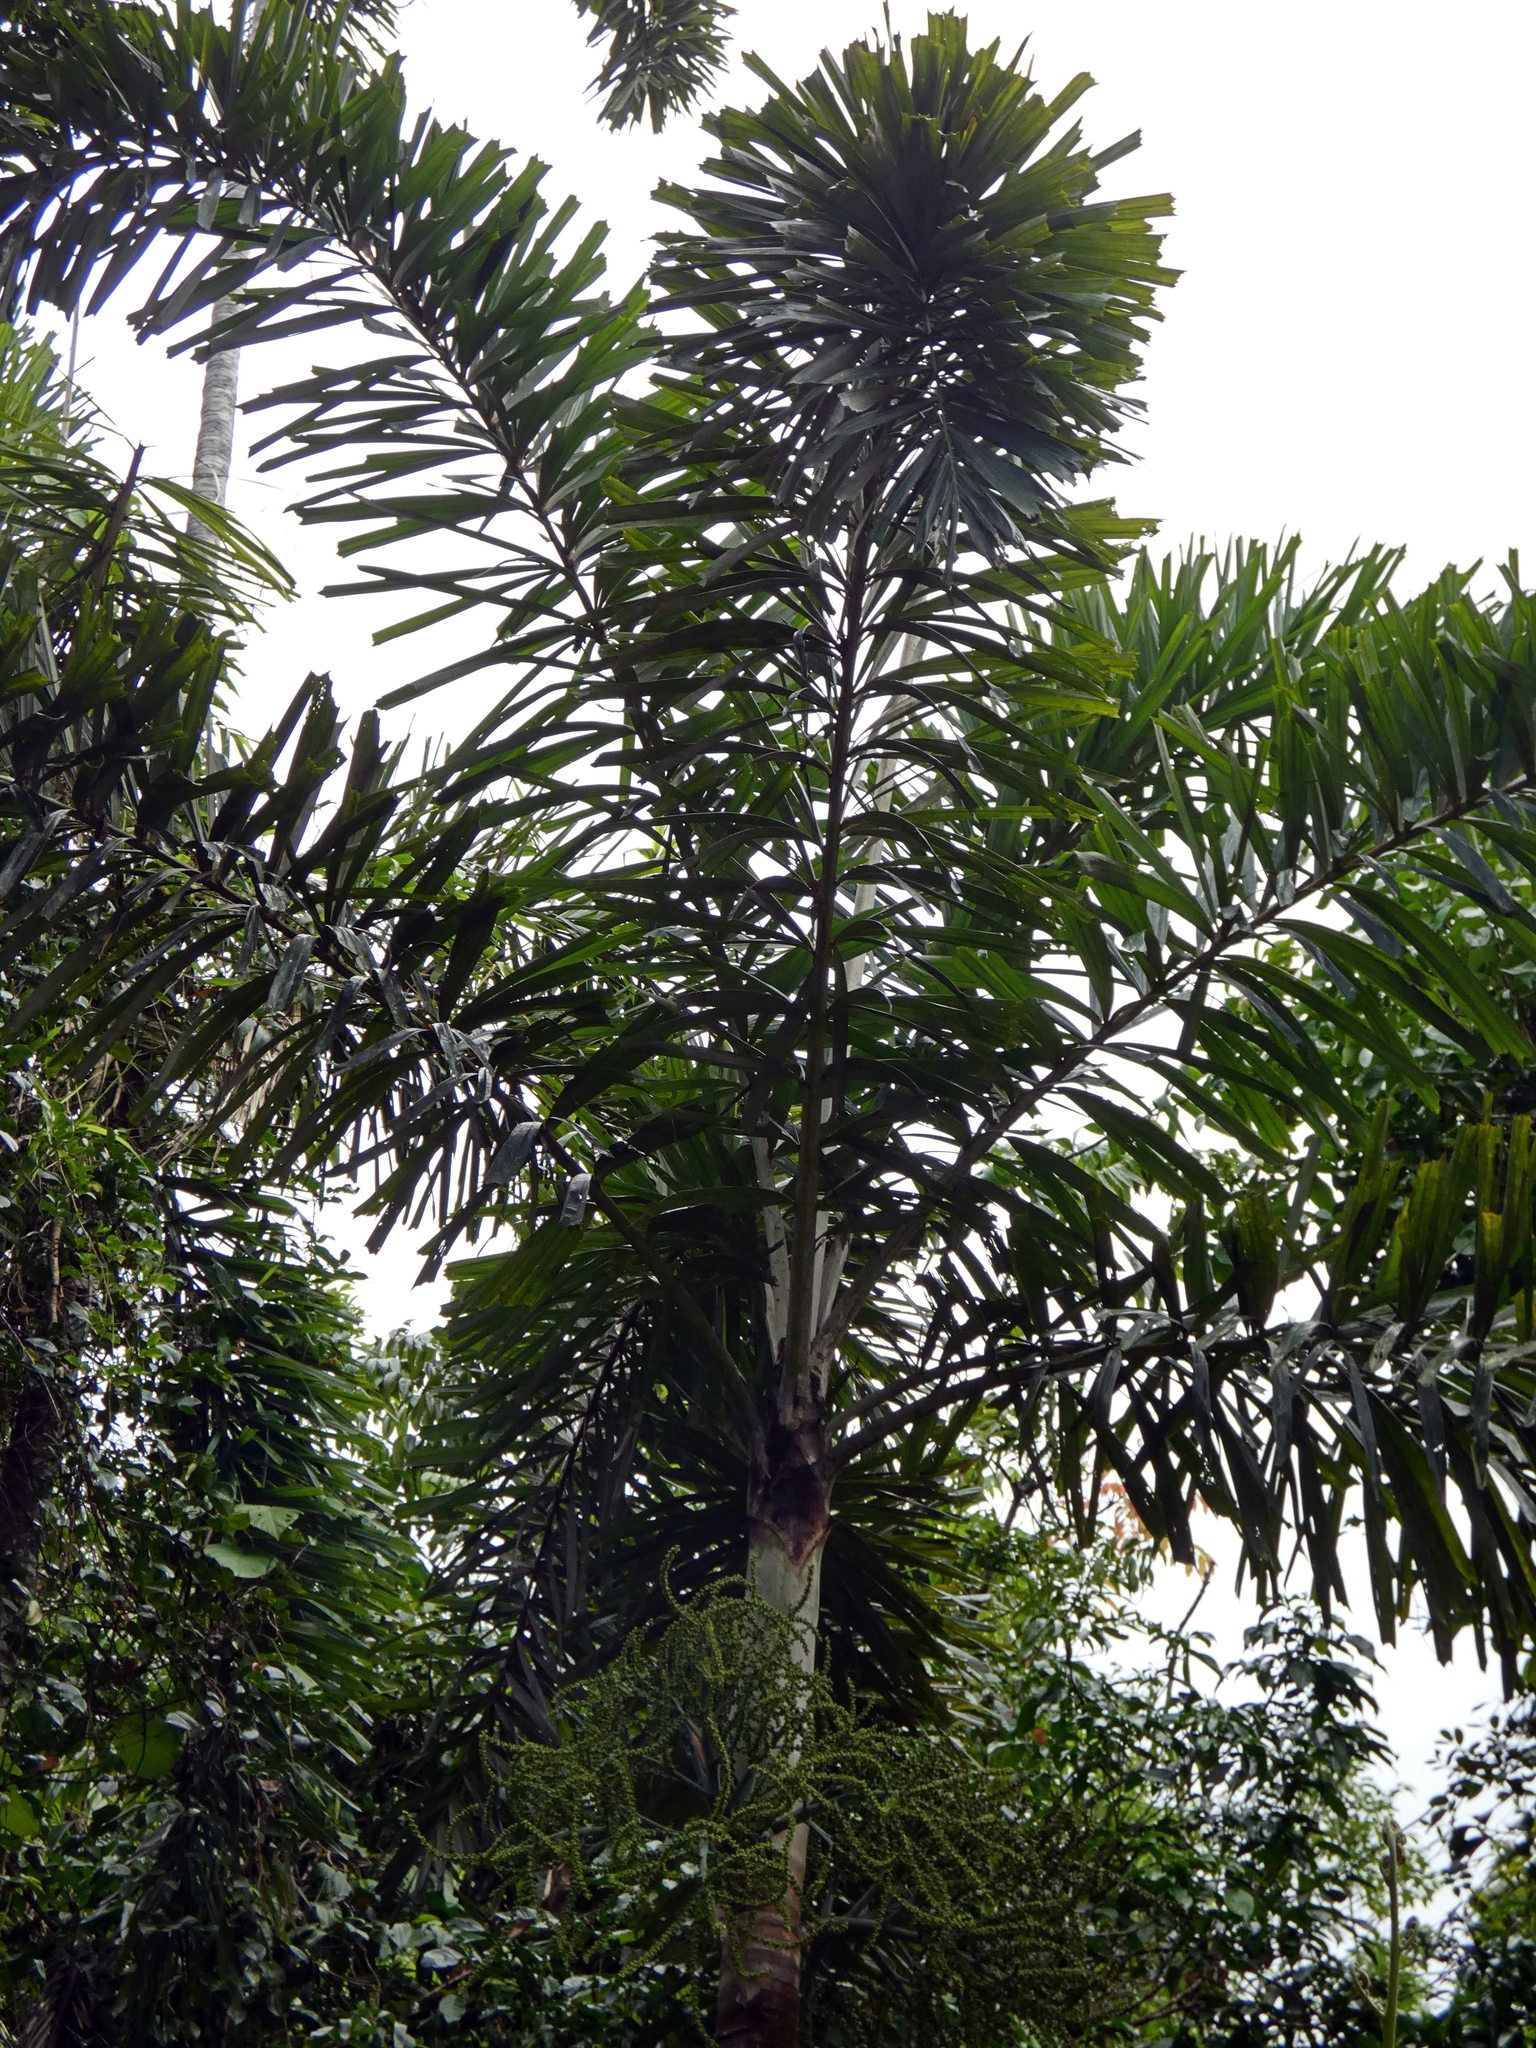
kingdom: Plantae
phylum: Tracheophyta
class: Liliopsida
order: Arecales
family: Arecaceae
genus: Normanbya
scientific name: Normanbya normanbyi
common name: Black palm
